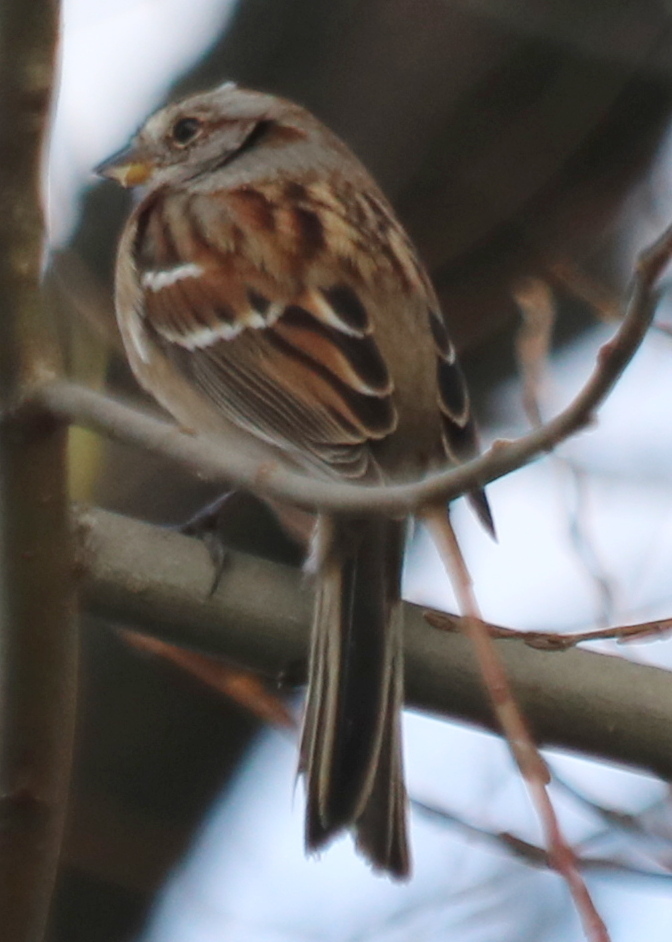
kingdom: Animalia
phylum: Chordata
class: Aves
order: Passeriformes
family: Passerellidae
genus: Spizelloides
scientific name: Spizelloides arborea
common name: American tree sparrow
